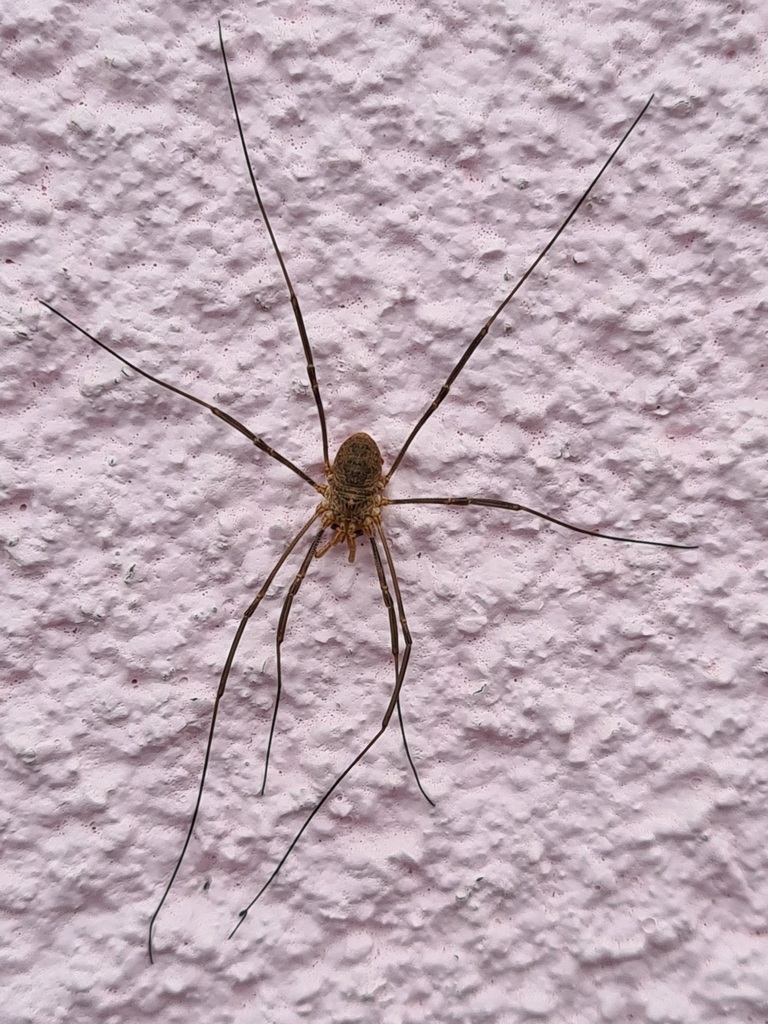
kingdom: Animalia
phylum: Arthropoda
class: Arachnida
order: Opiliones
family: Phalangiidae
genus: Phalangium
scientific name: Phalangium opilio
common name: Daddy longleg
